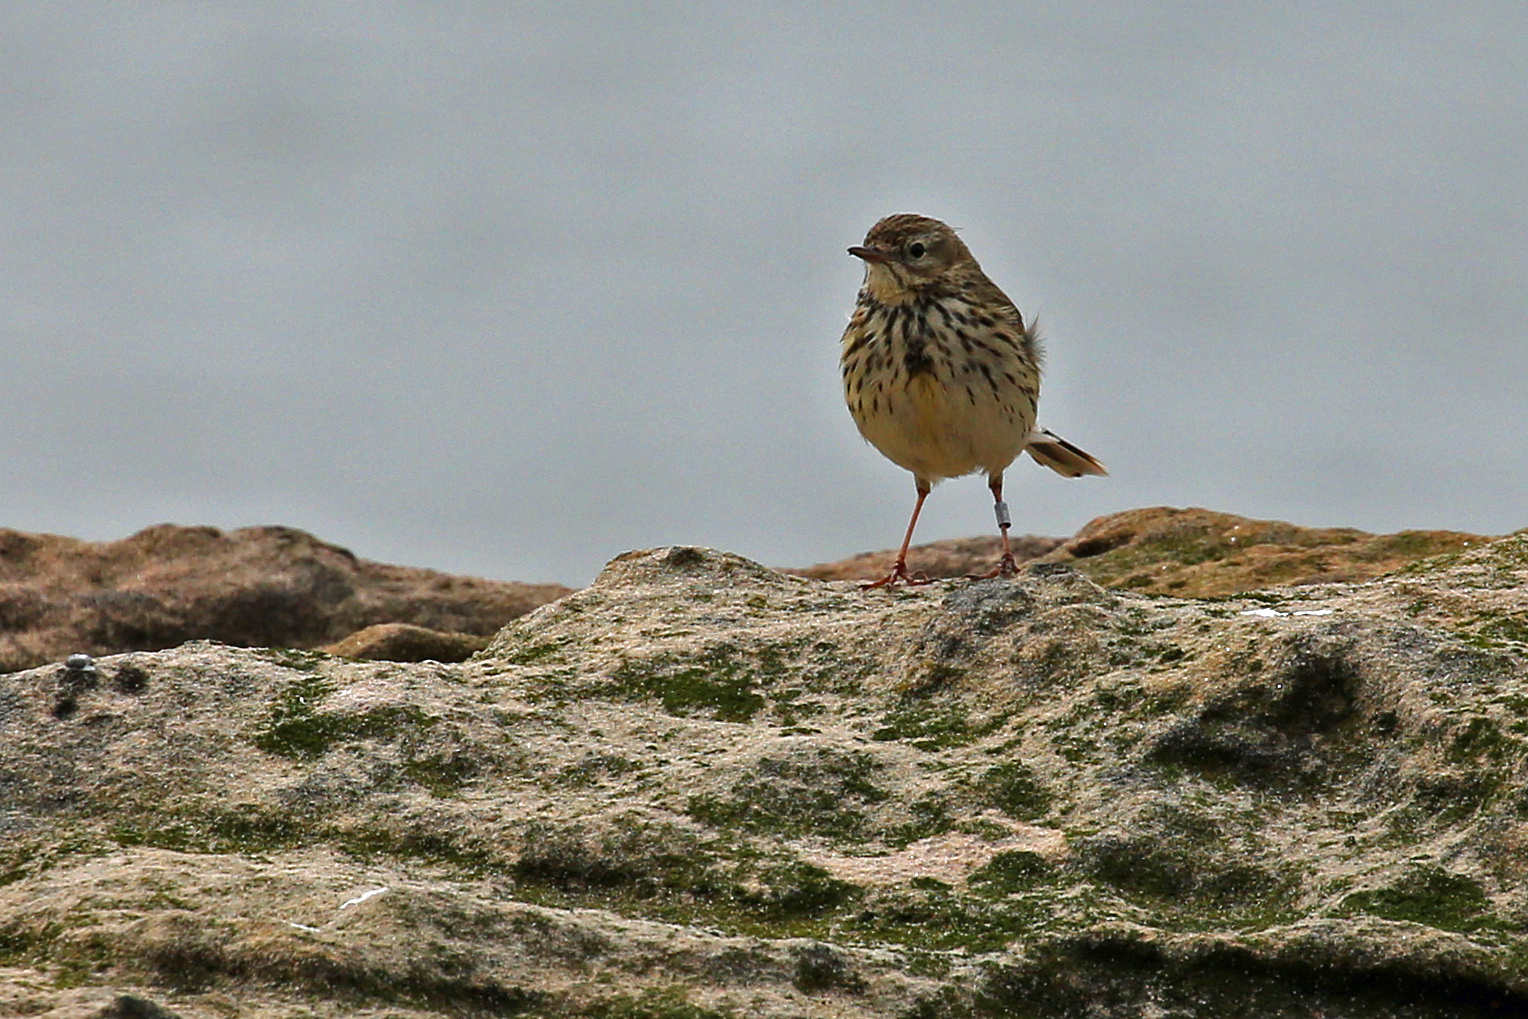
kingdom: Animalia
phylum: Chordata
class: Aves
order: Passeriformes
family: Motacillidae
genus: Anthus
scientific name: Anthus pratensis
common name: Meadow pipit
